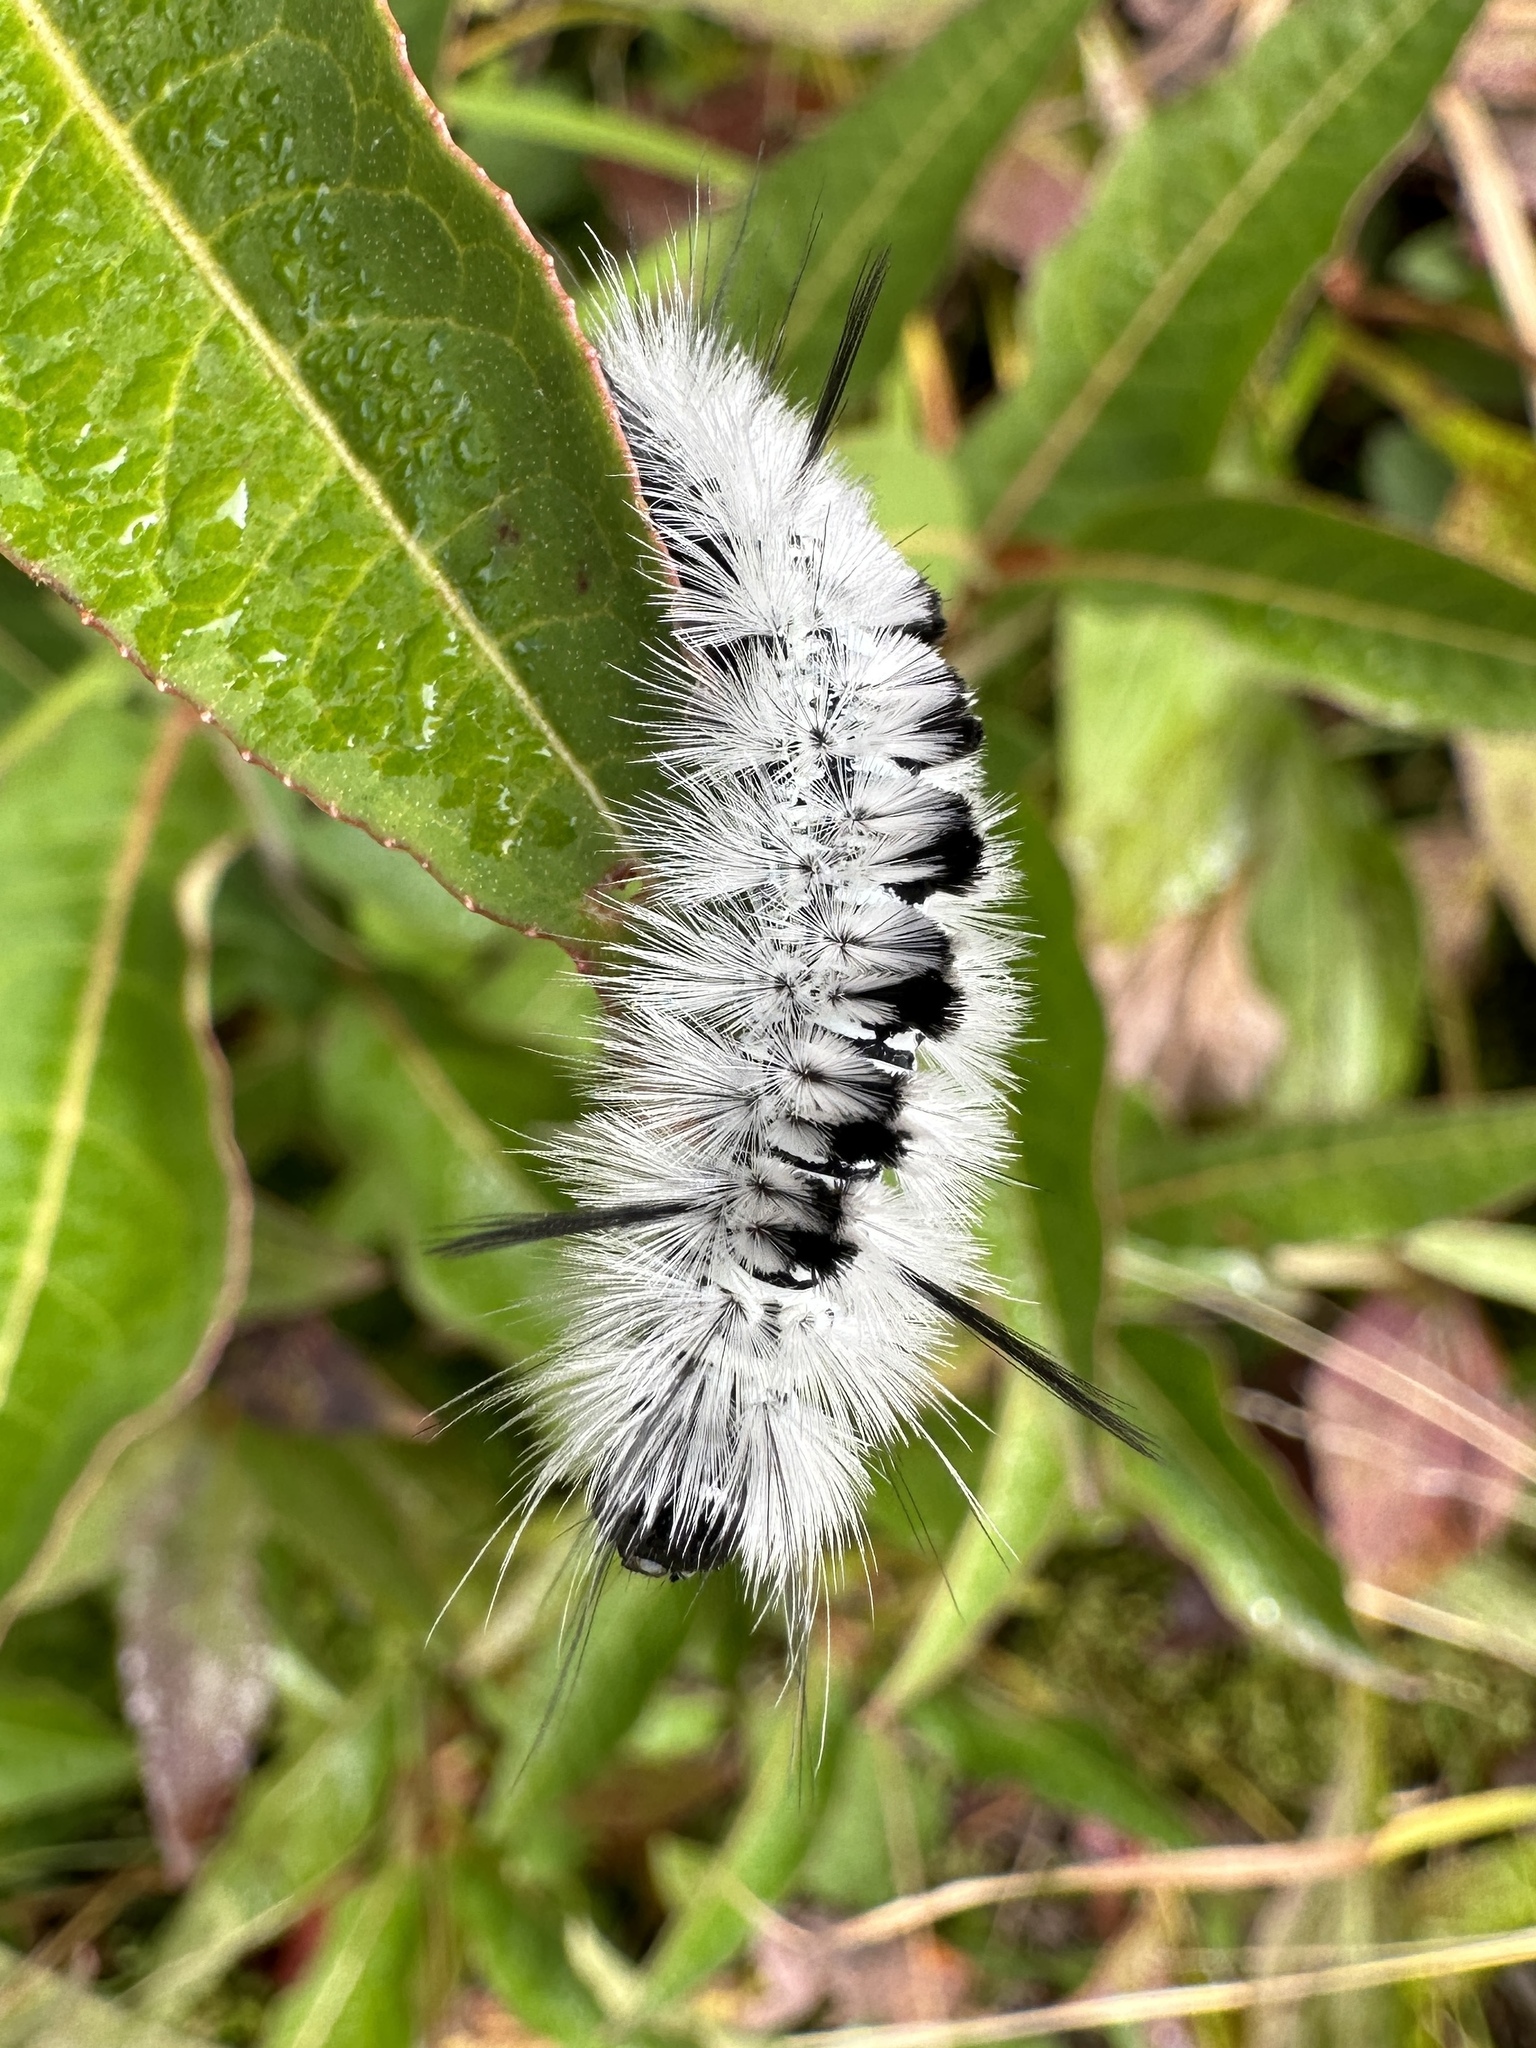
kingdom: Animalia
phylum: Arthropoda
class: Insecta
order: Lepidoptera
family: Erebidae
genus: Lophocampa
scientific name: Lophocampa caryae
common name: Hickory tussock moth
